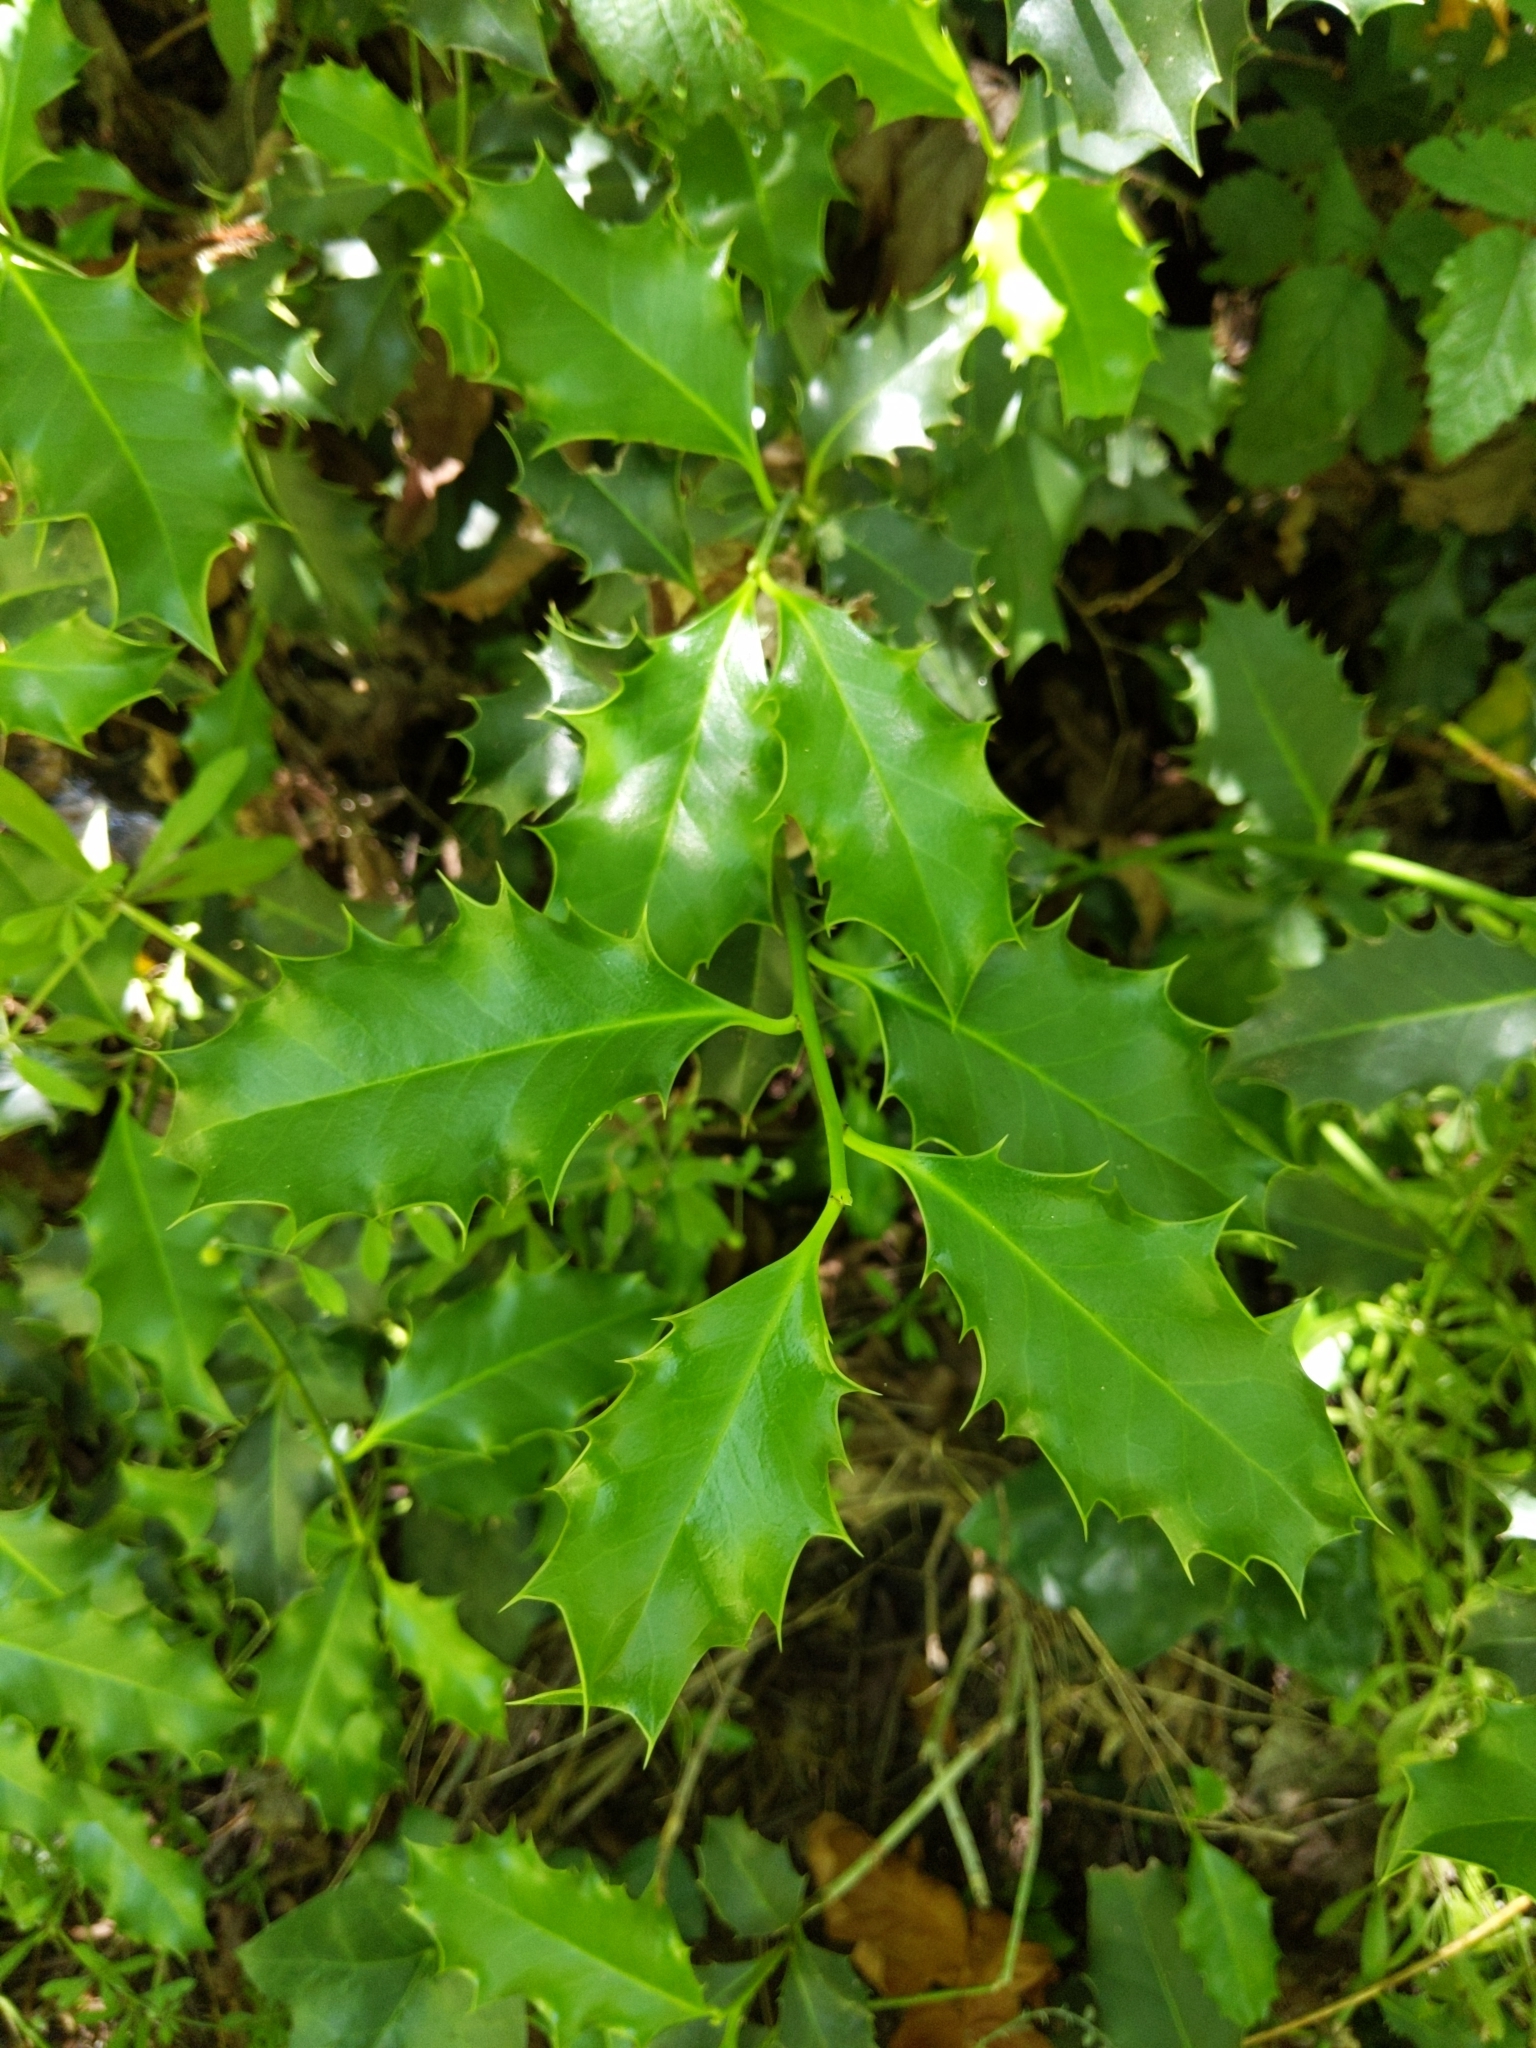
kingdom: Plantae
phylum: Tracheophyta
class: Magnoliopsida
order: Aquifoliales
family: Aquifoliaceae
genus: Ilex
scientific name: Ilex aquifolium
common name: English holly
